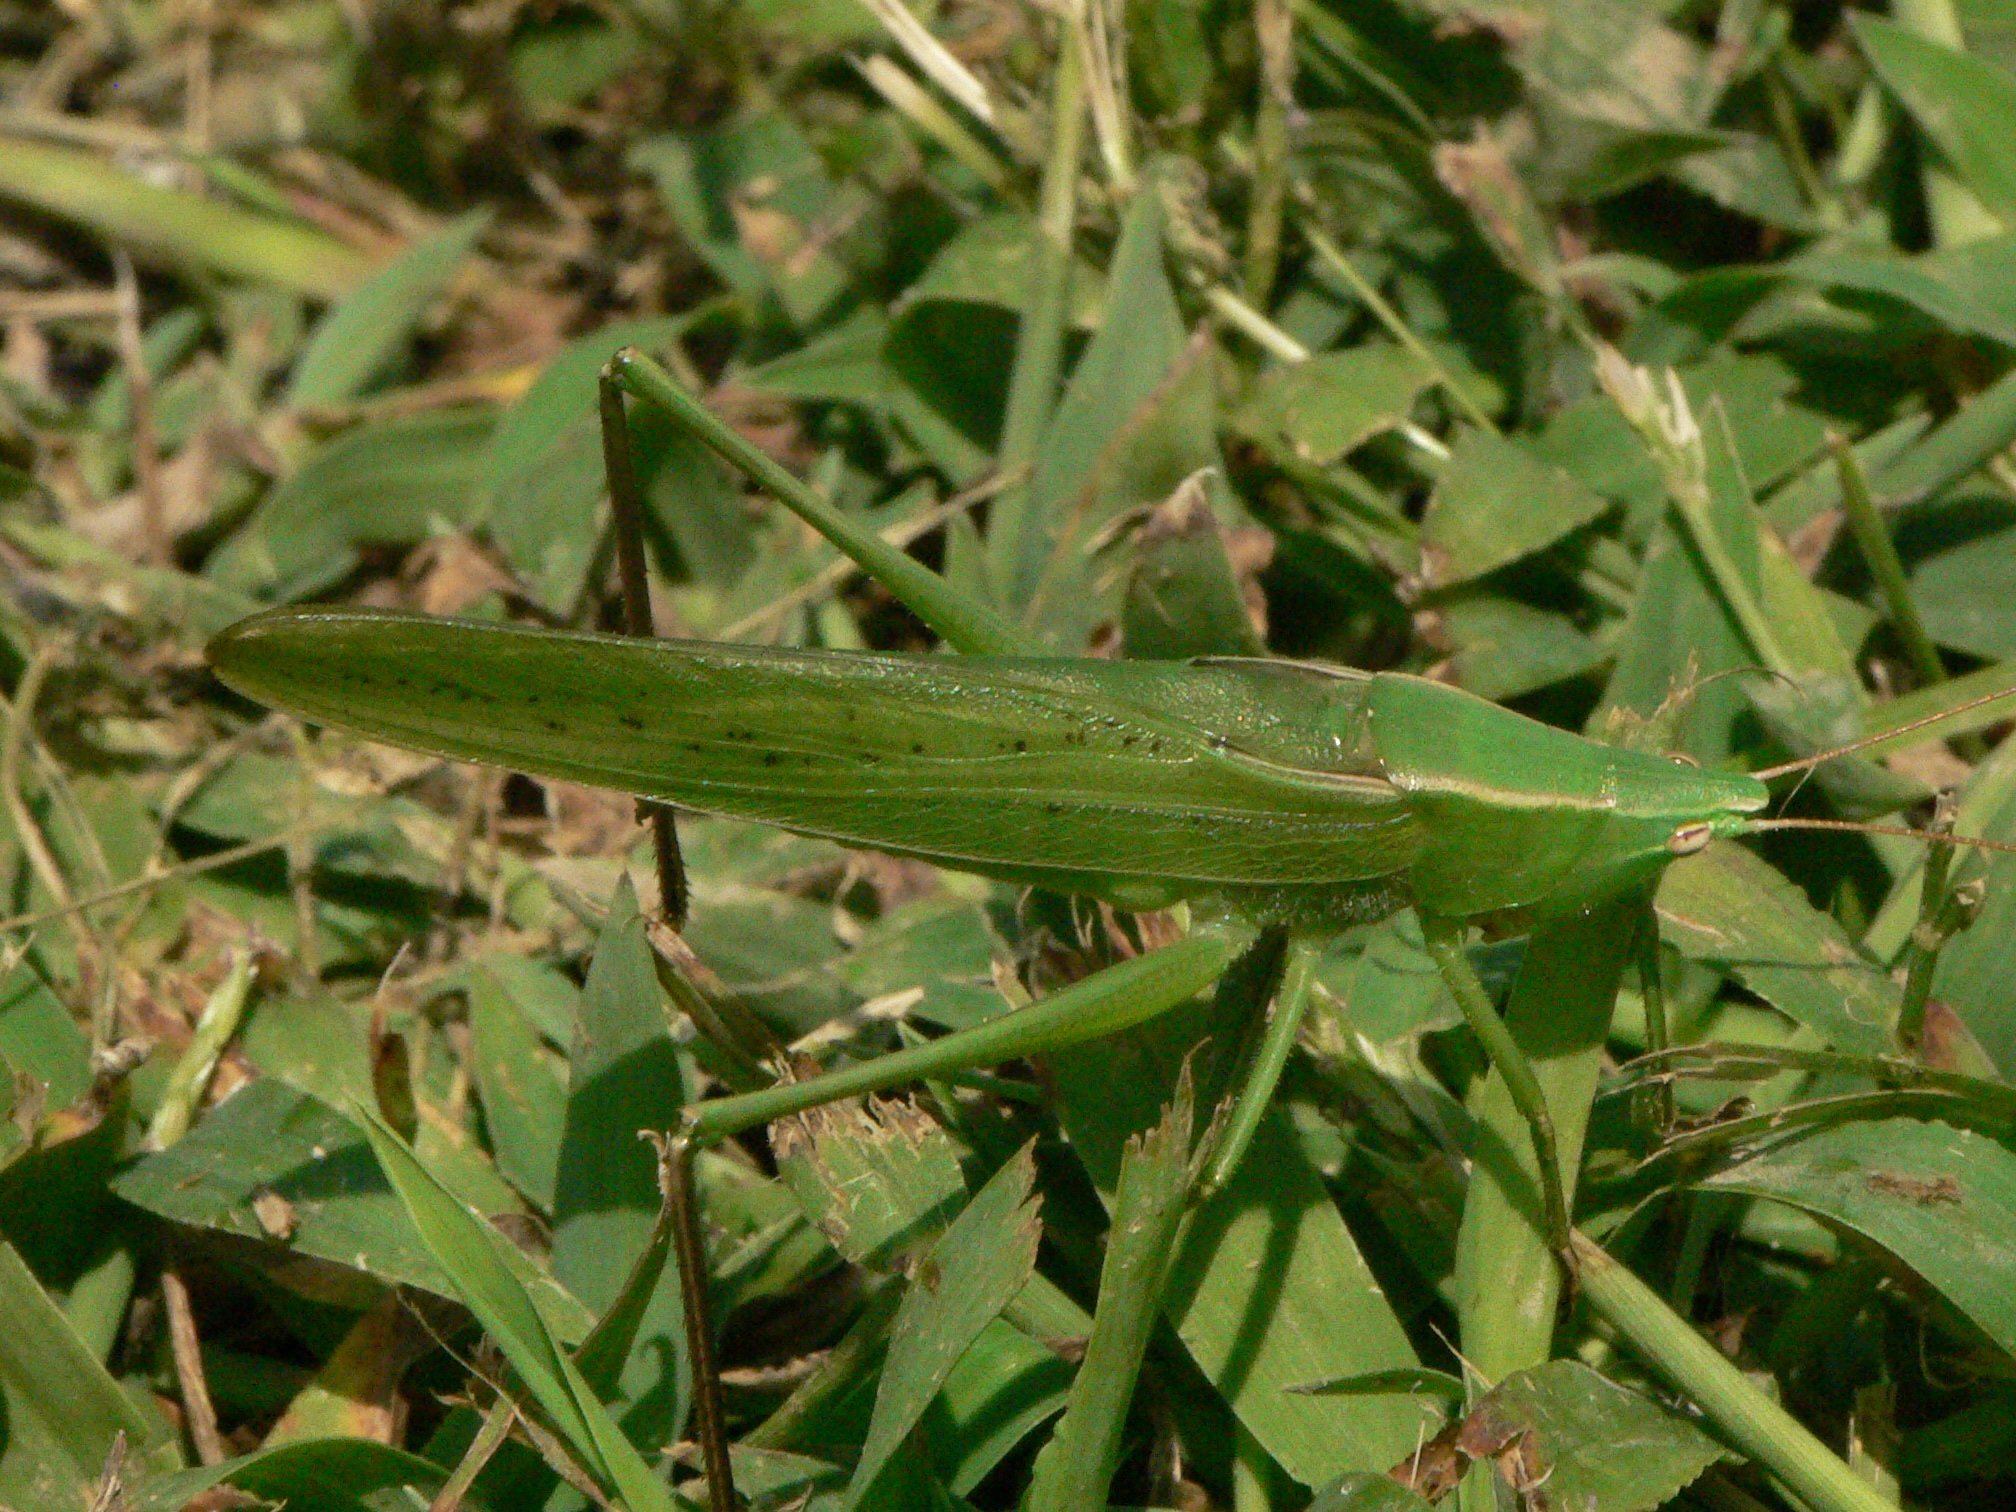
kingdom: Animalia
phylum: Arthropoda
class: Insecta
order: Orthoptera
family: Tettigoniidae
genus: Neoconocephalus
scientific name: Neoconocephalus retusus
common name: Round-tipped conehead
